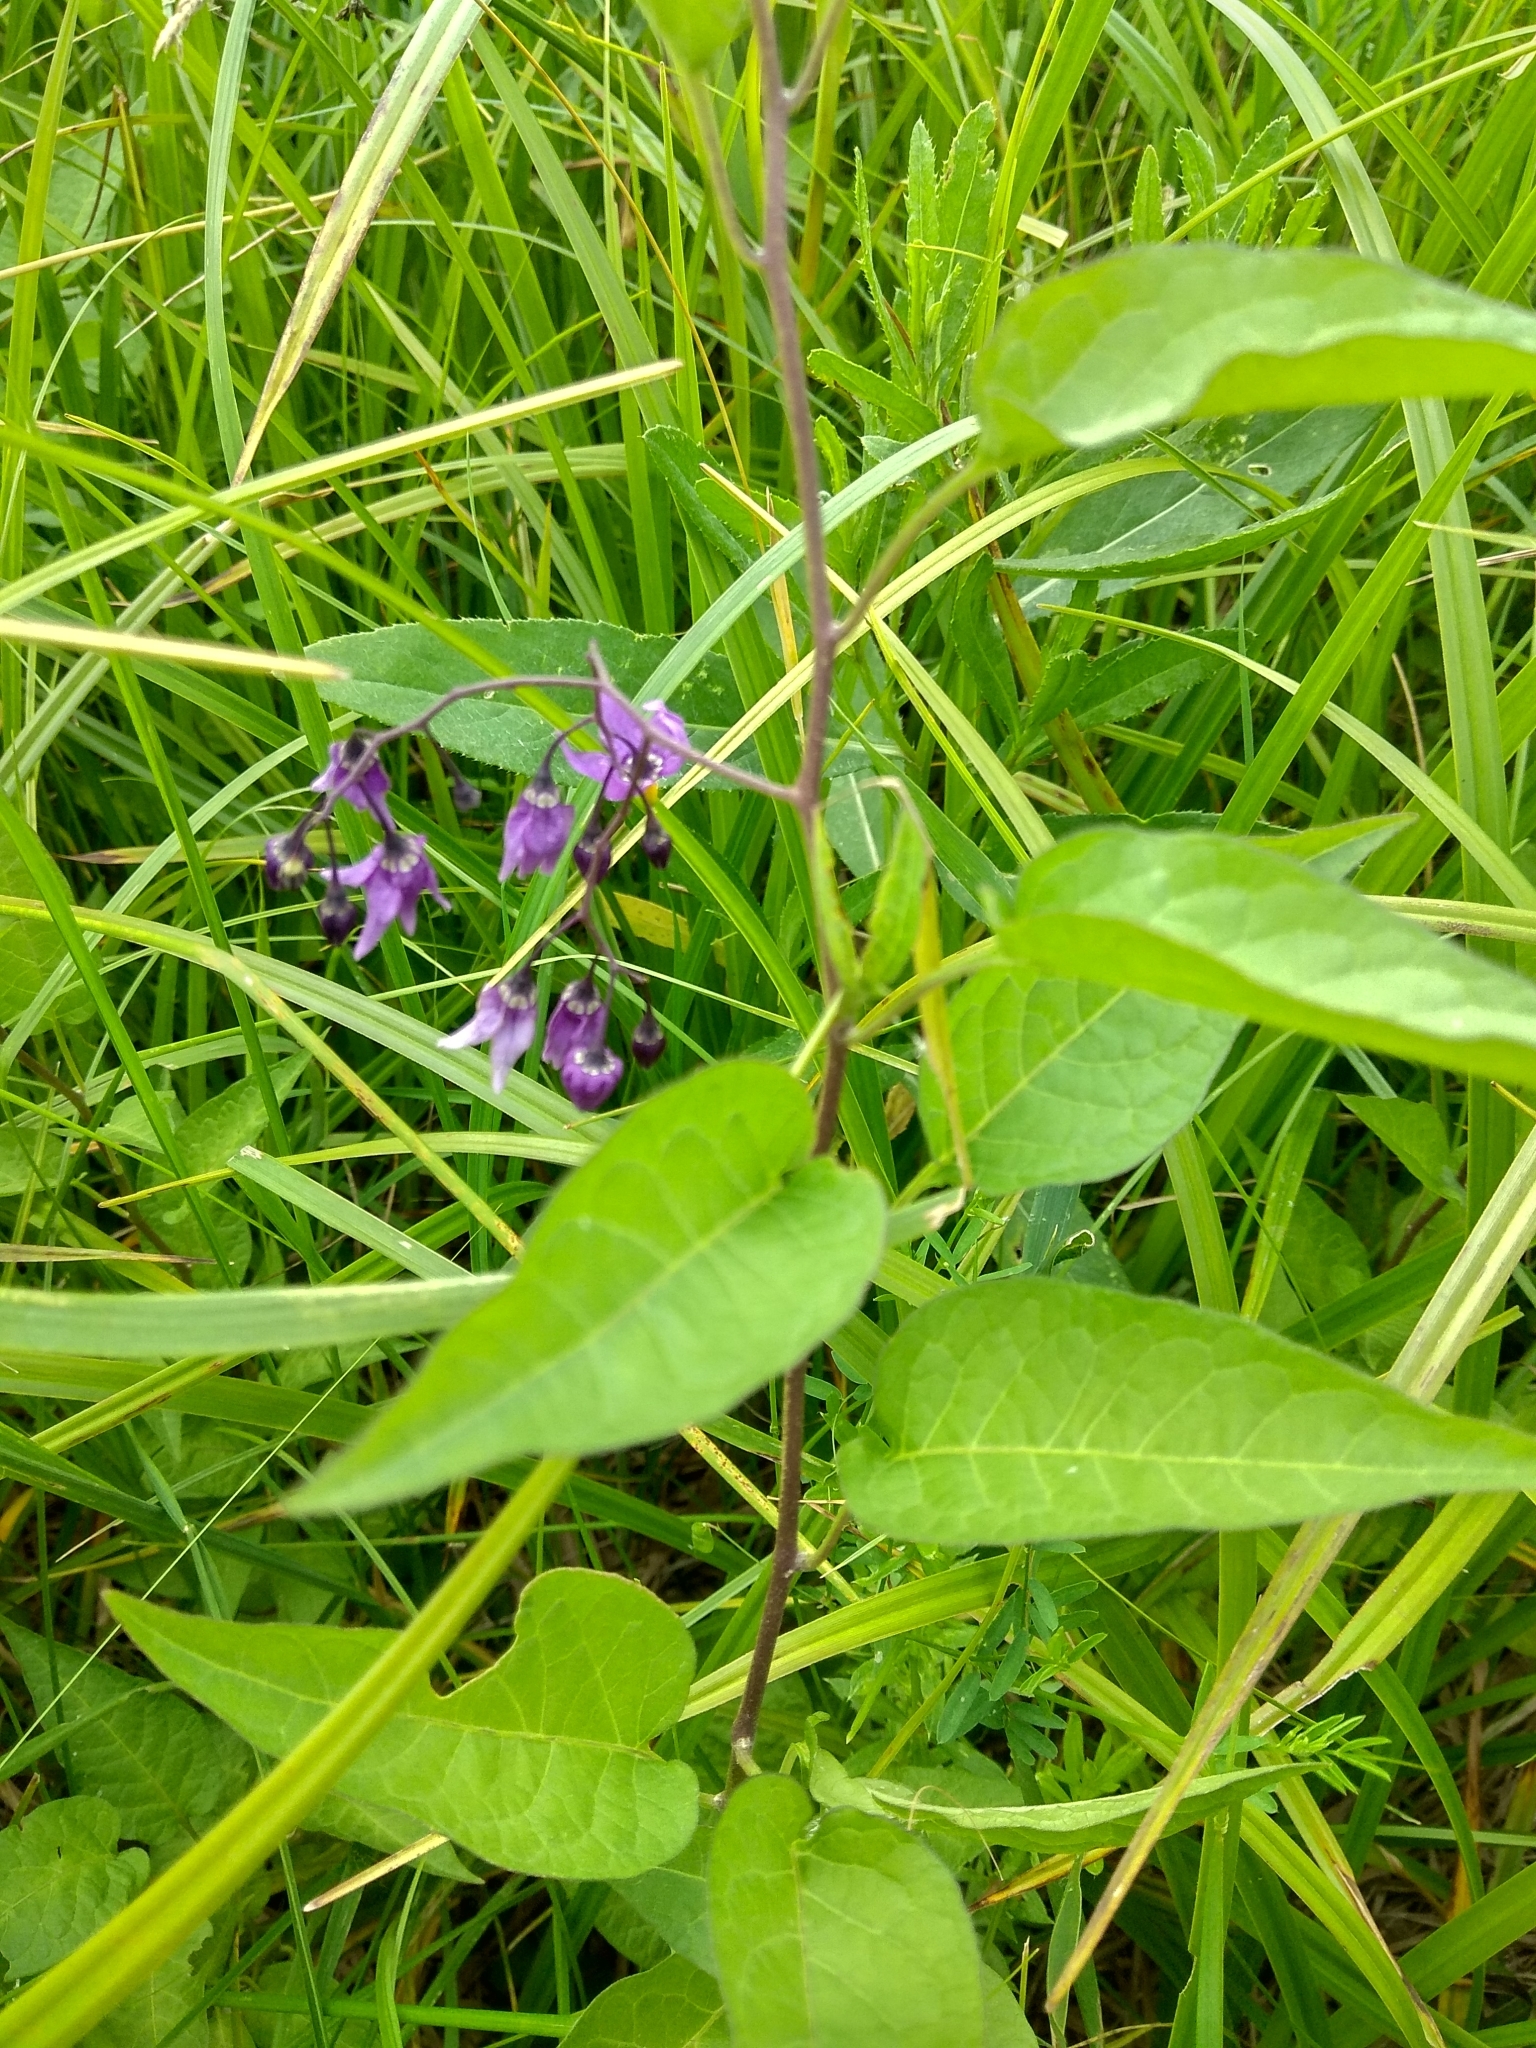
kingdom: Plantae
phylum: Tracheophyta
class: Magnoliopsida
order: Solanales
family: Solanaceae
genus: Solanum
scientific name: Solanum dulcamara
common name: Climbing nightshade
